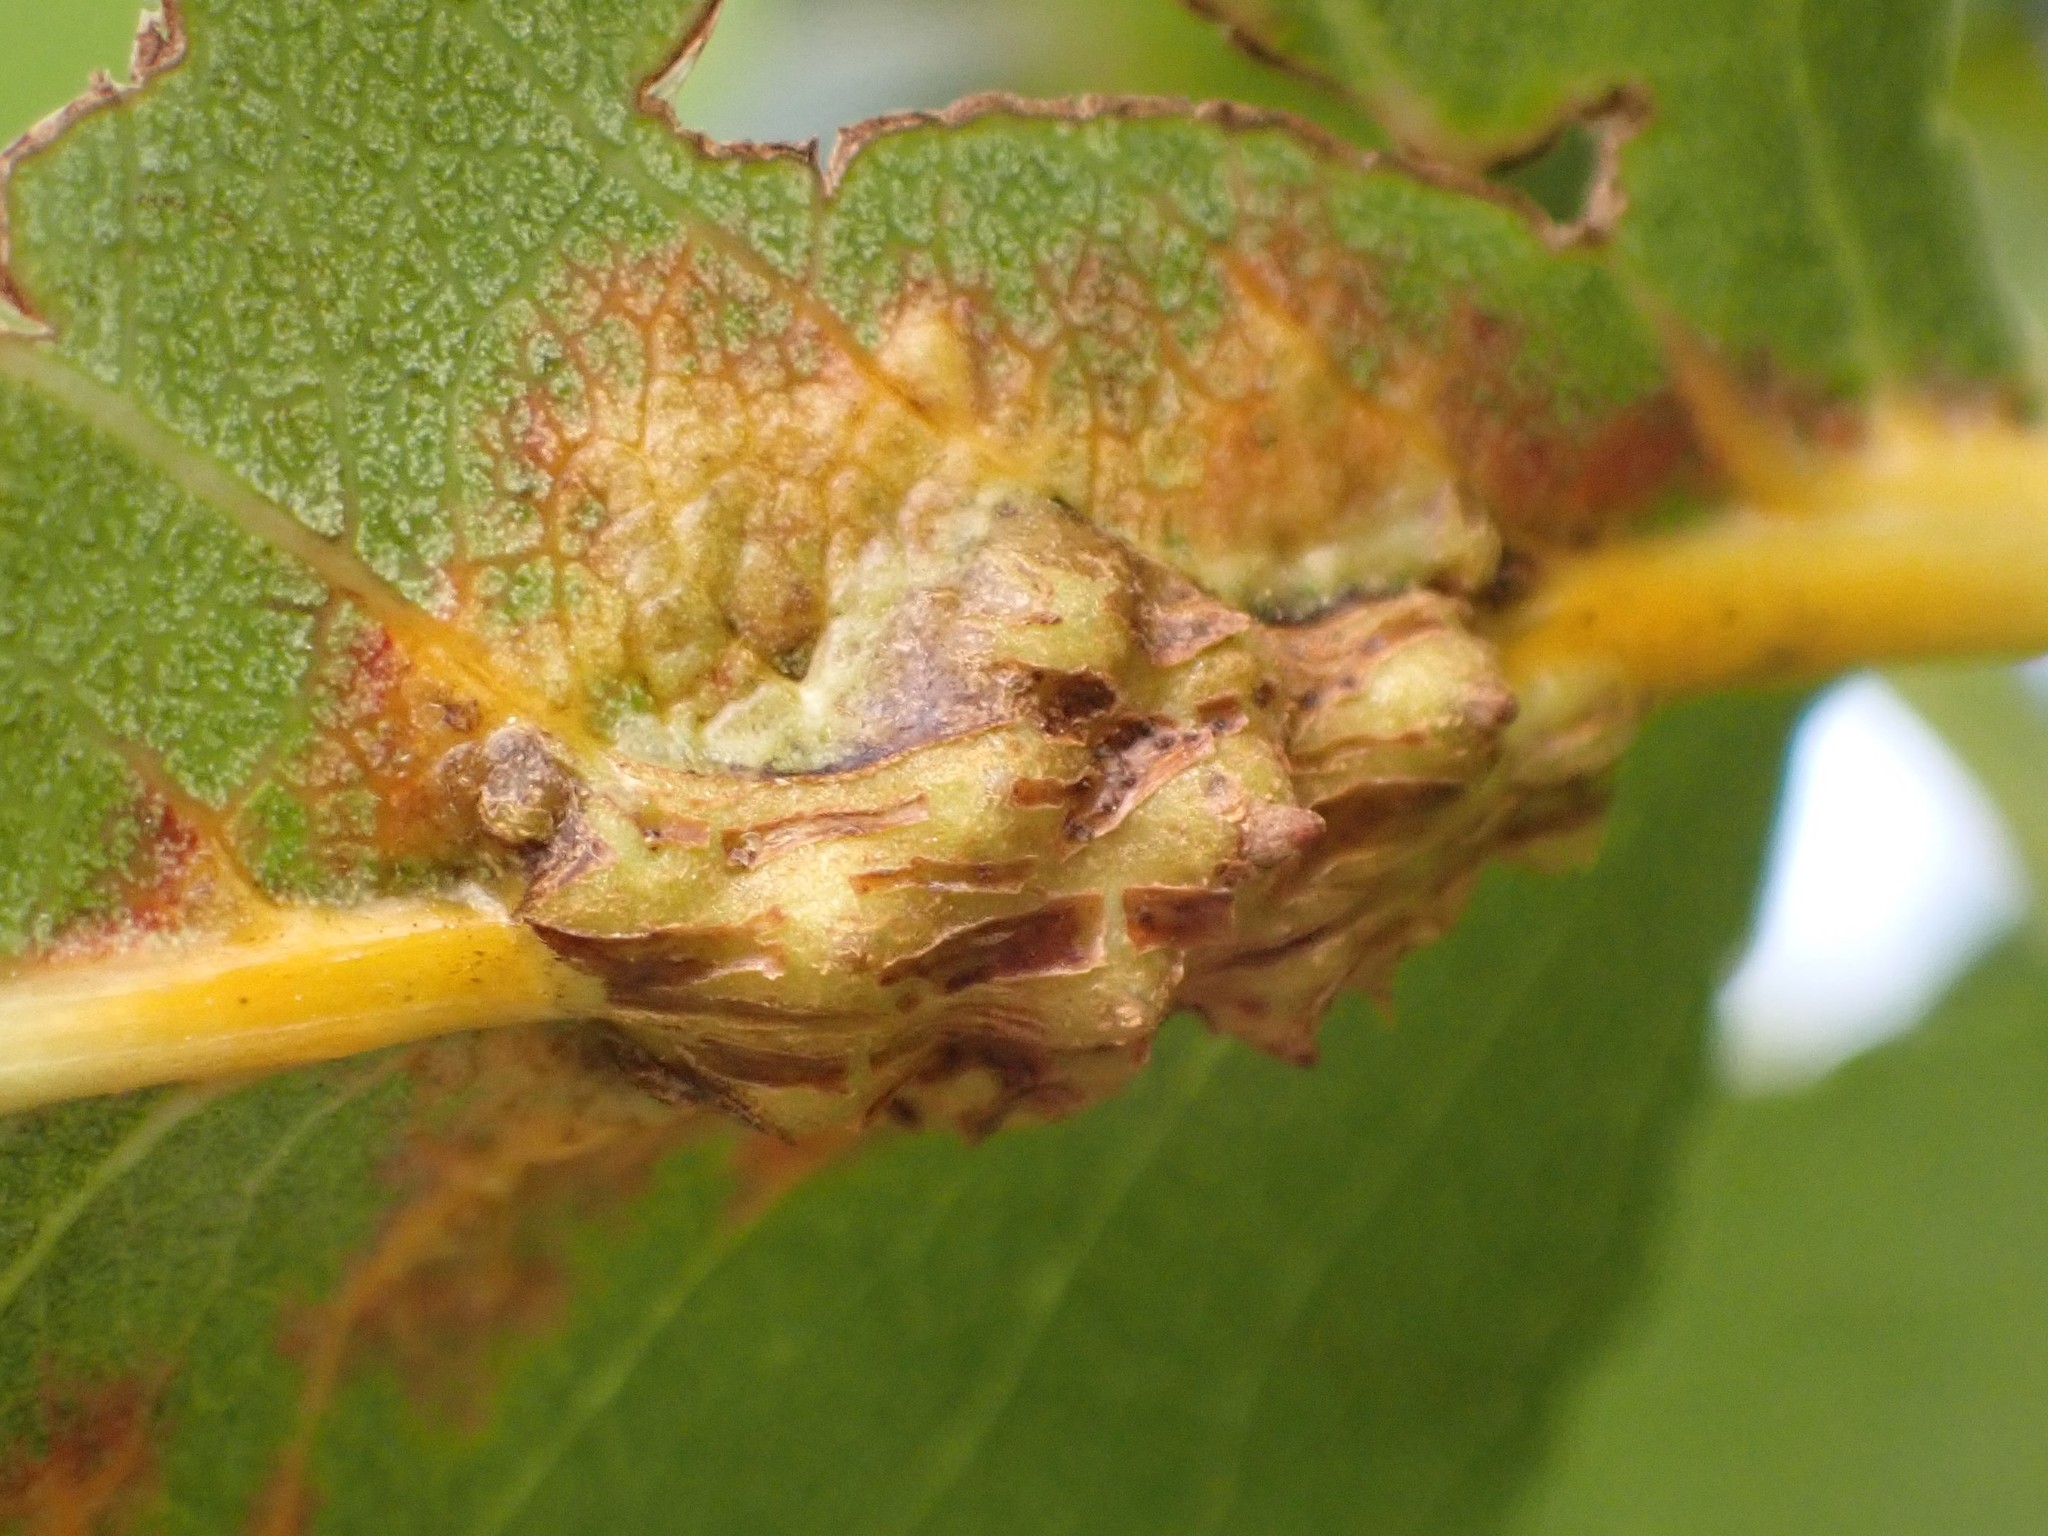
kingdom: Fungi
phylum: Basidiomycota
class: Pucciniomycetes
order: Pucciniales
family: Gymnosporangiaceae
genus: Gymnosporangium
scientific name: Gymnosporangium sabinae
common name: Pear trellis rust fungus
